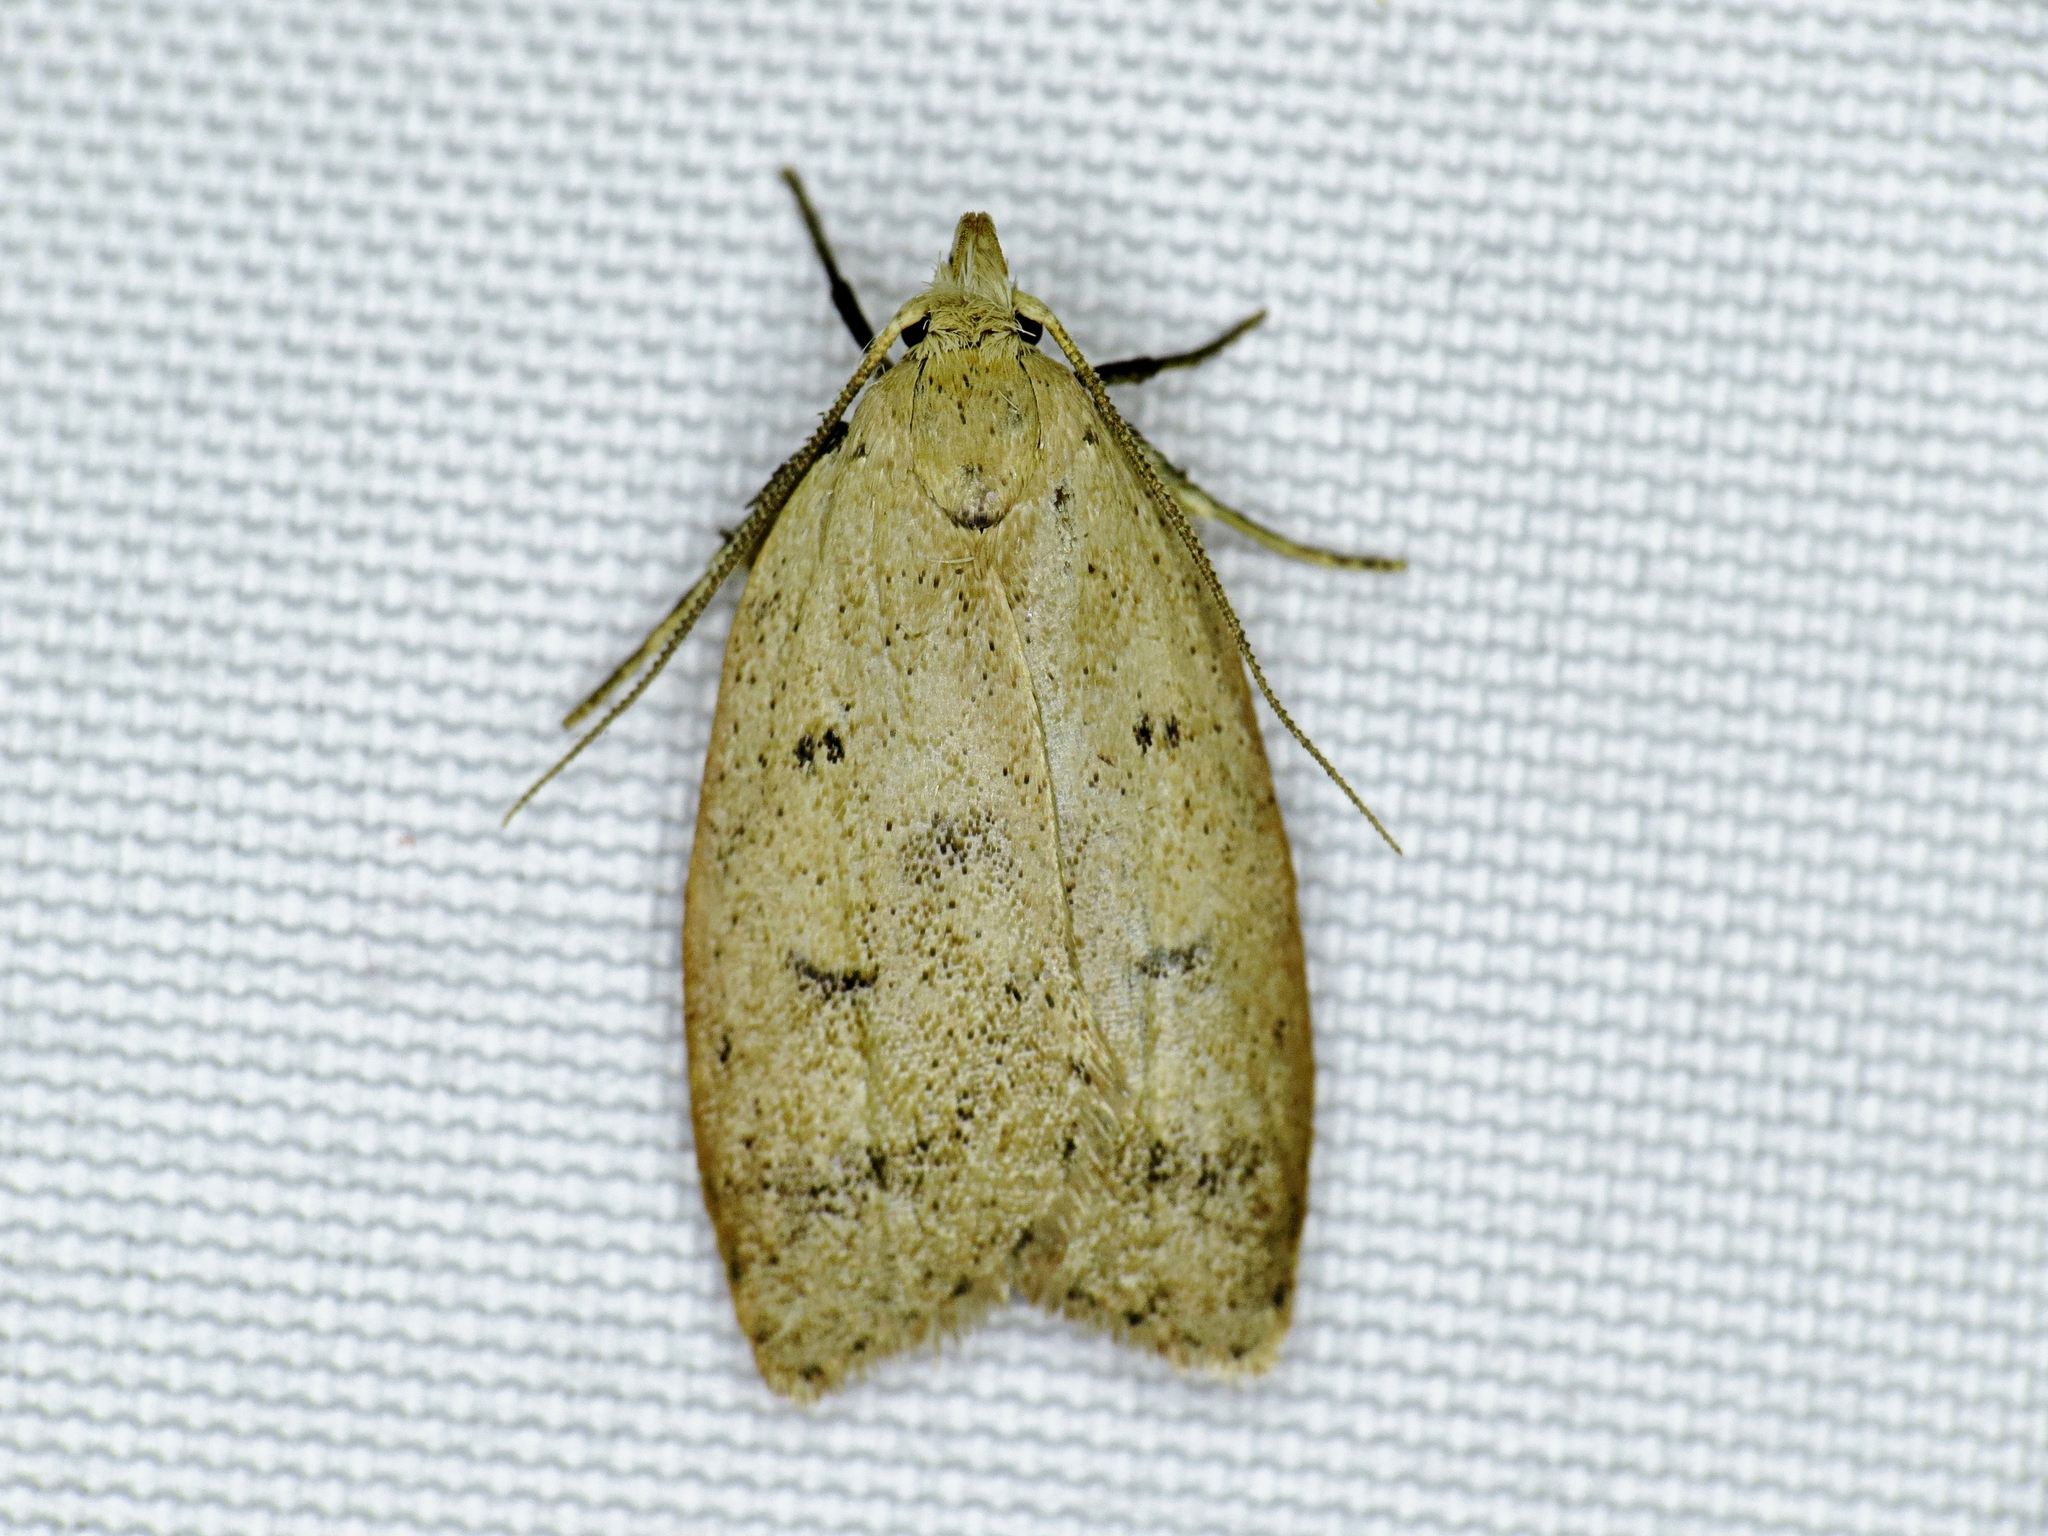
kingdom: Animalia
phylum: Arthropoda
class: Insecta
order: Lepidoptera
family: Peleopodidae
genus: Machimia
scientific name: Machimia tentoriferella
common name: Gold-striped leaftier moth
